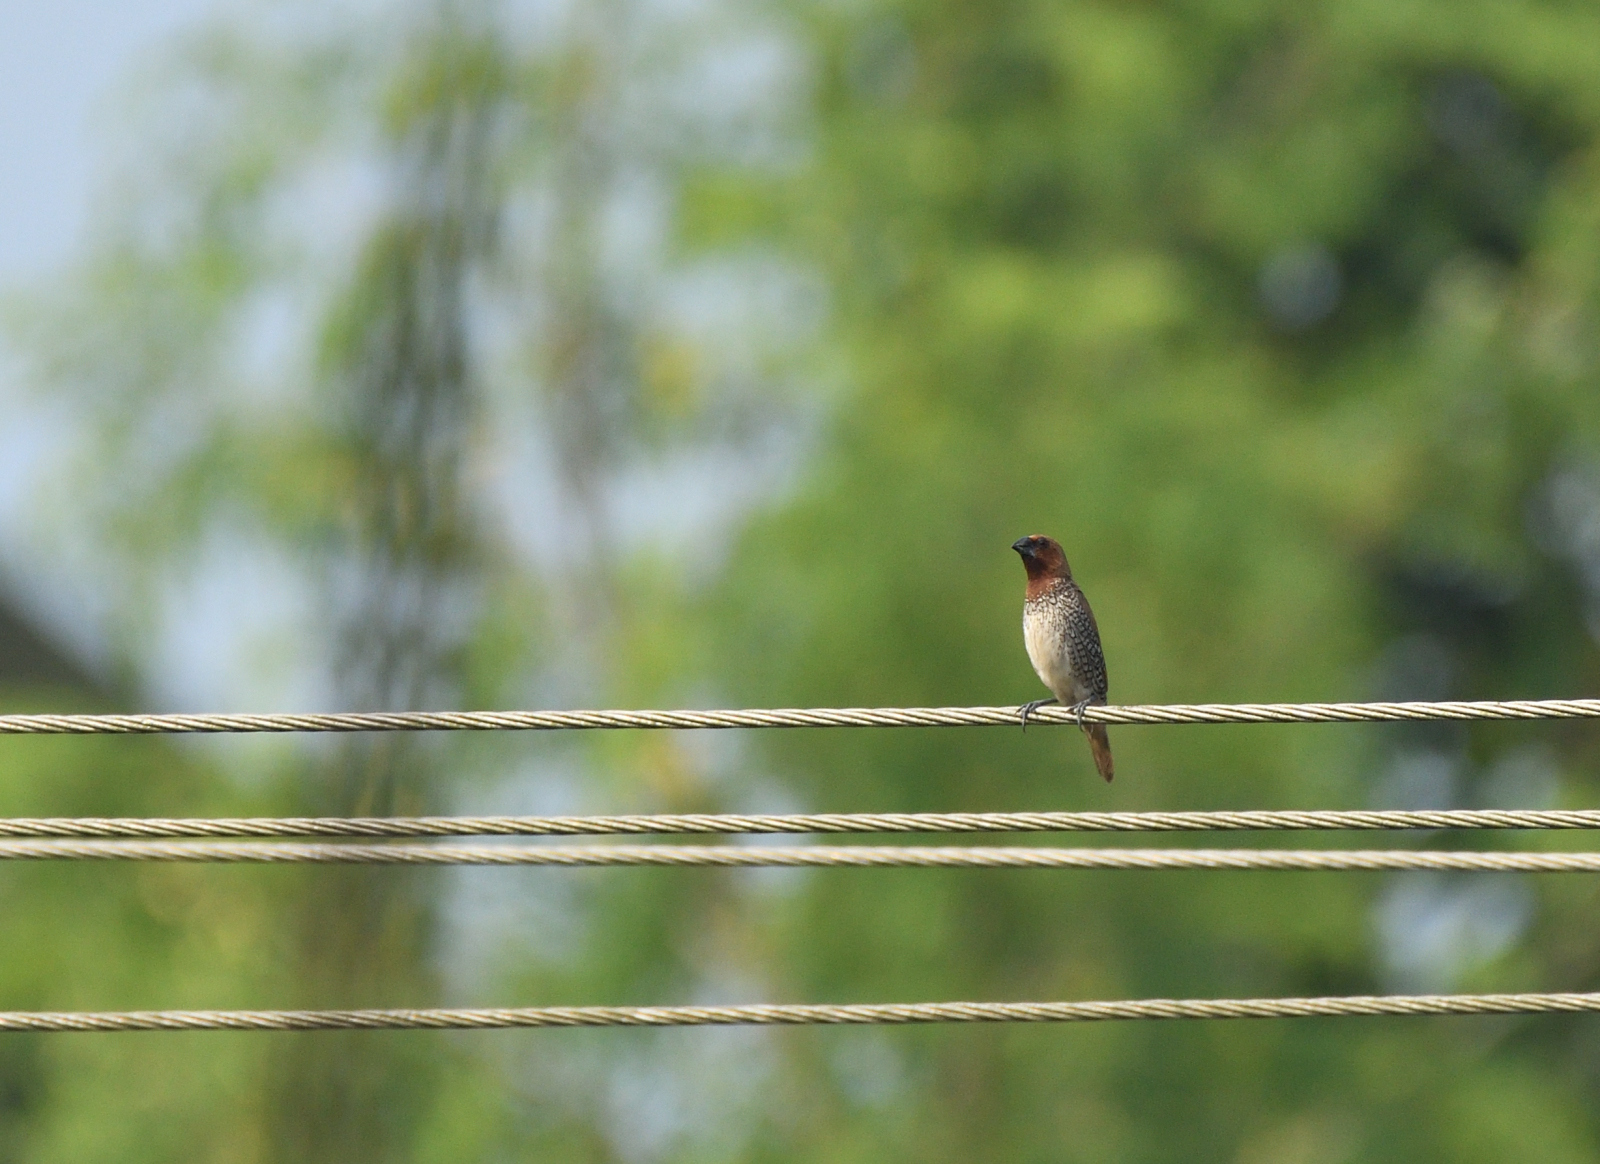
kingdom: Animalia
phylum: Chordata
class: Aves
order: Passeriformes
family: Estrildidae
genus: Lonchura
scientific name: Lonchura punctulata
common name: Scaly-breasted munia
